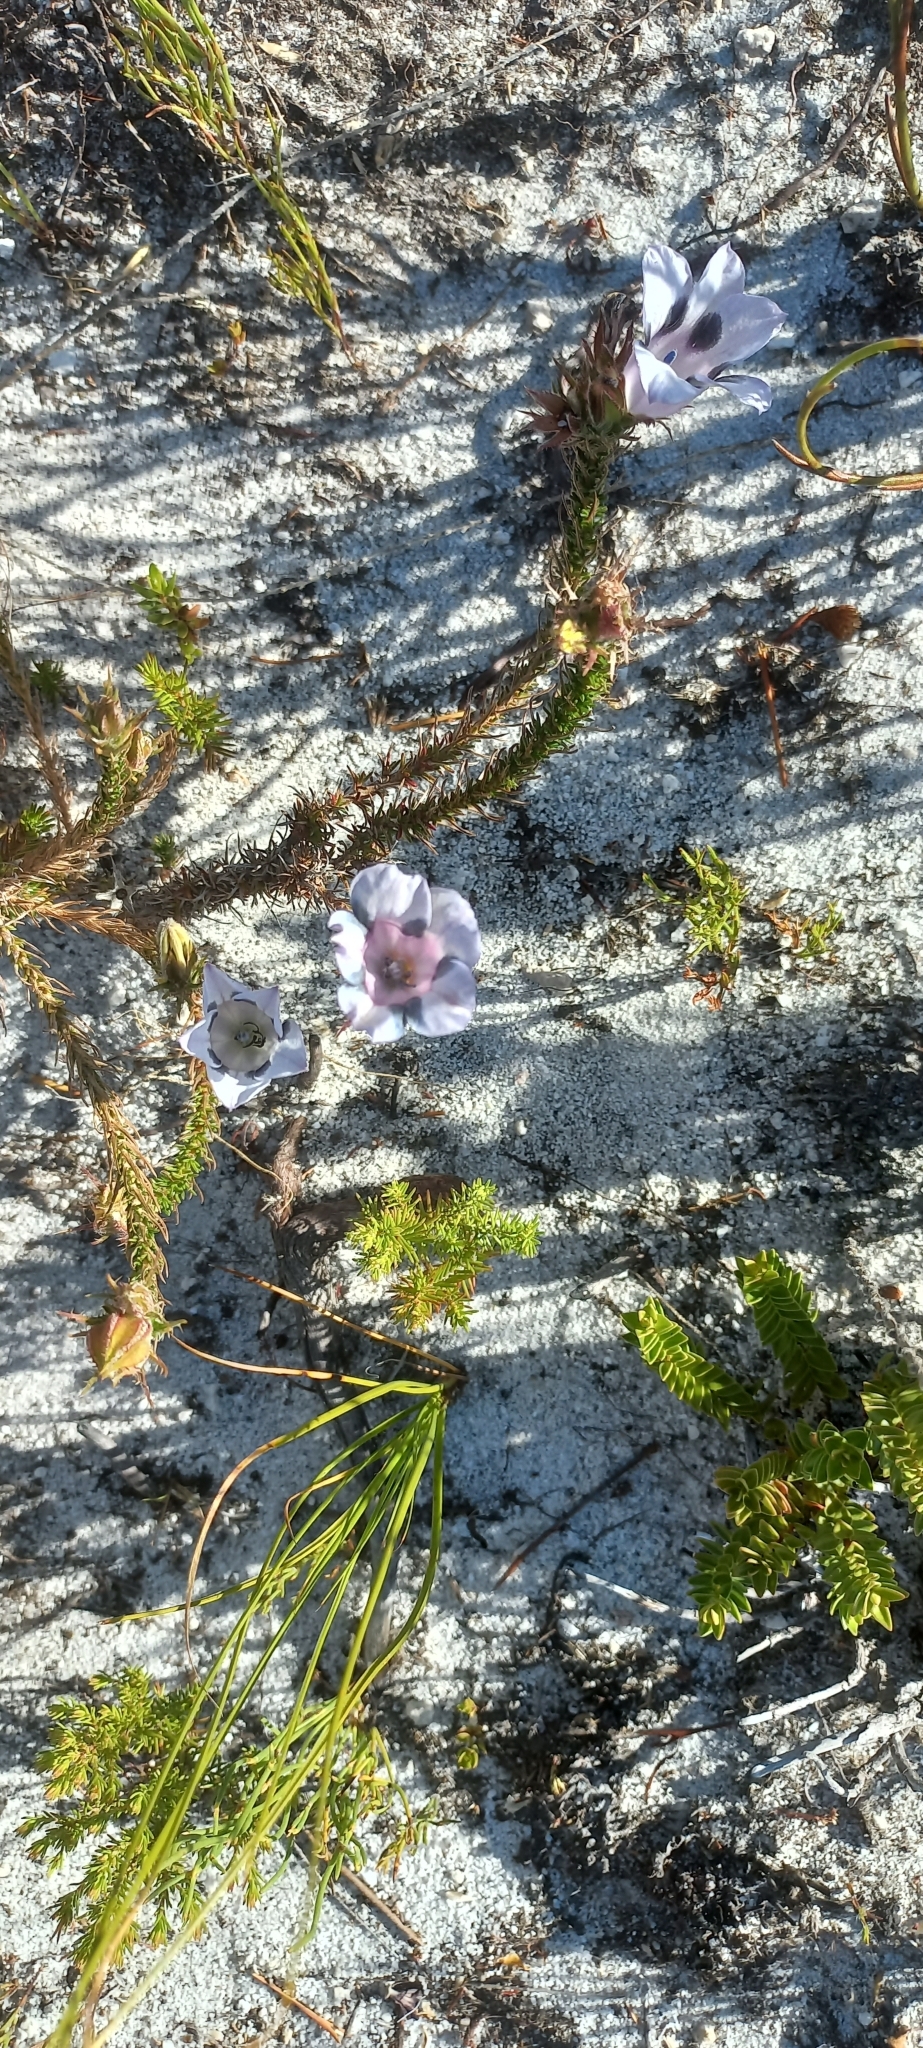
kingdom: Plantae
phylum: Tracheophyta
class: Magnoliopsida
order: Asterales
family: Campanulaceae
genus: Roella
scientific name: Roella maculata
